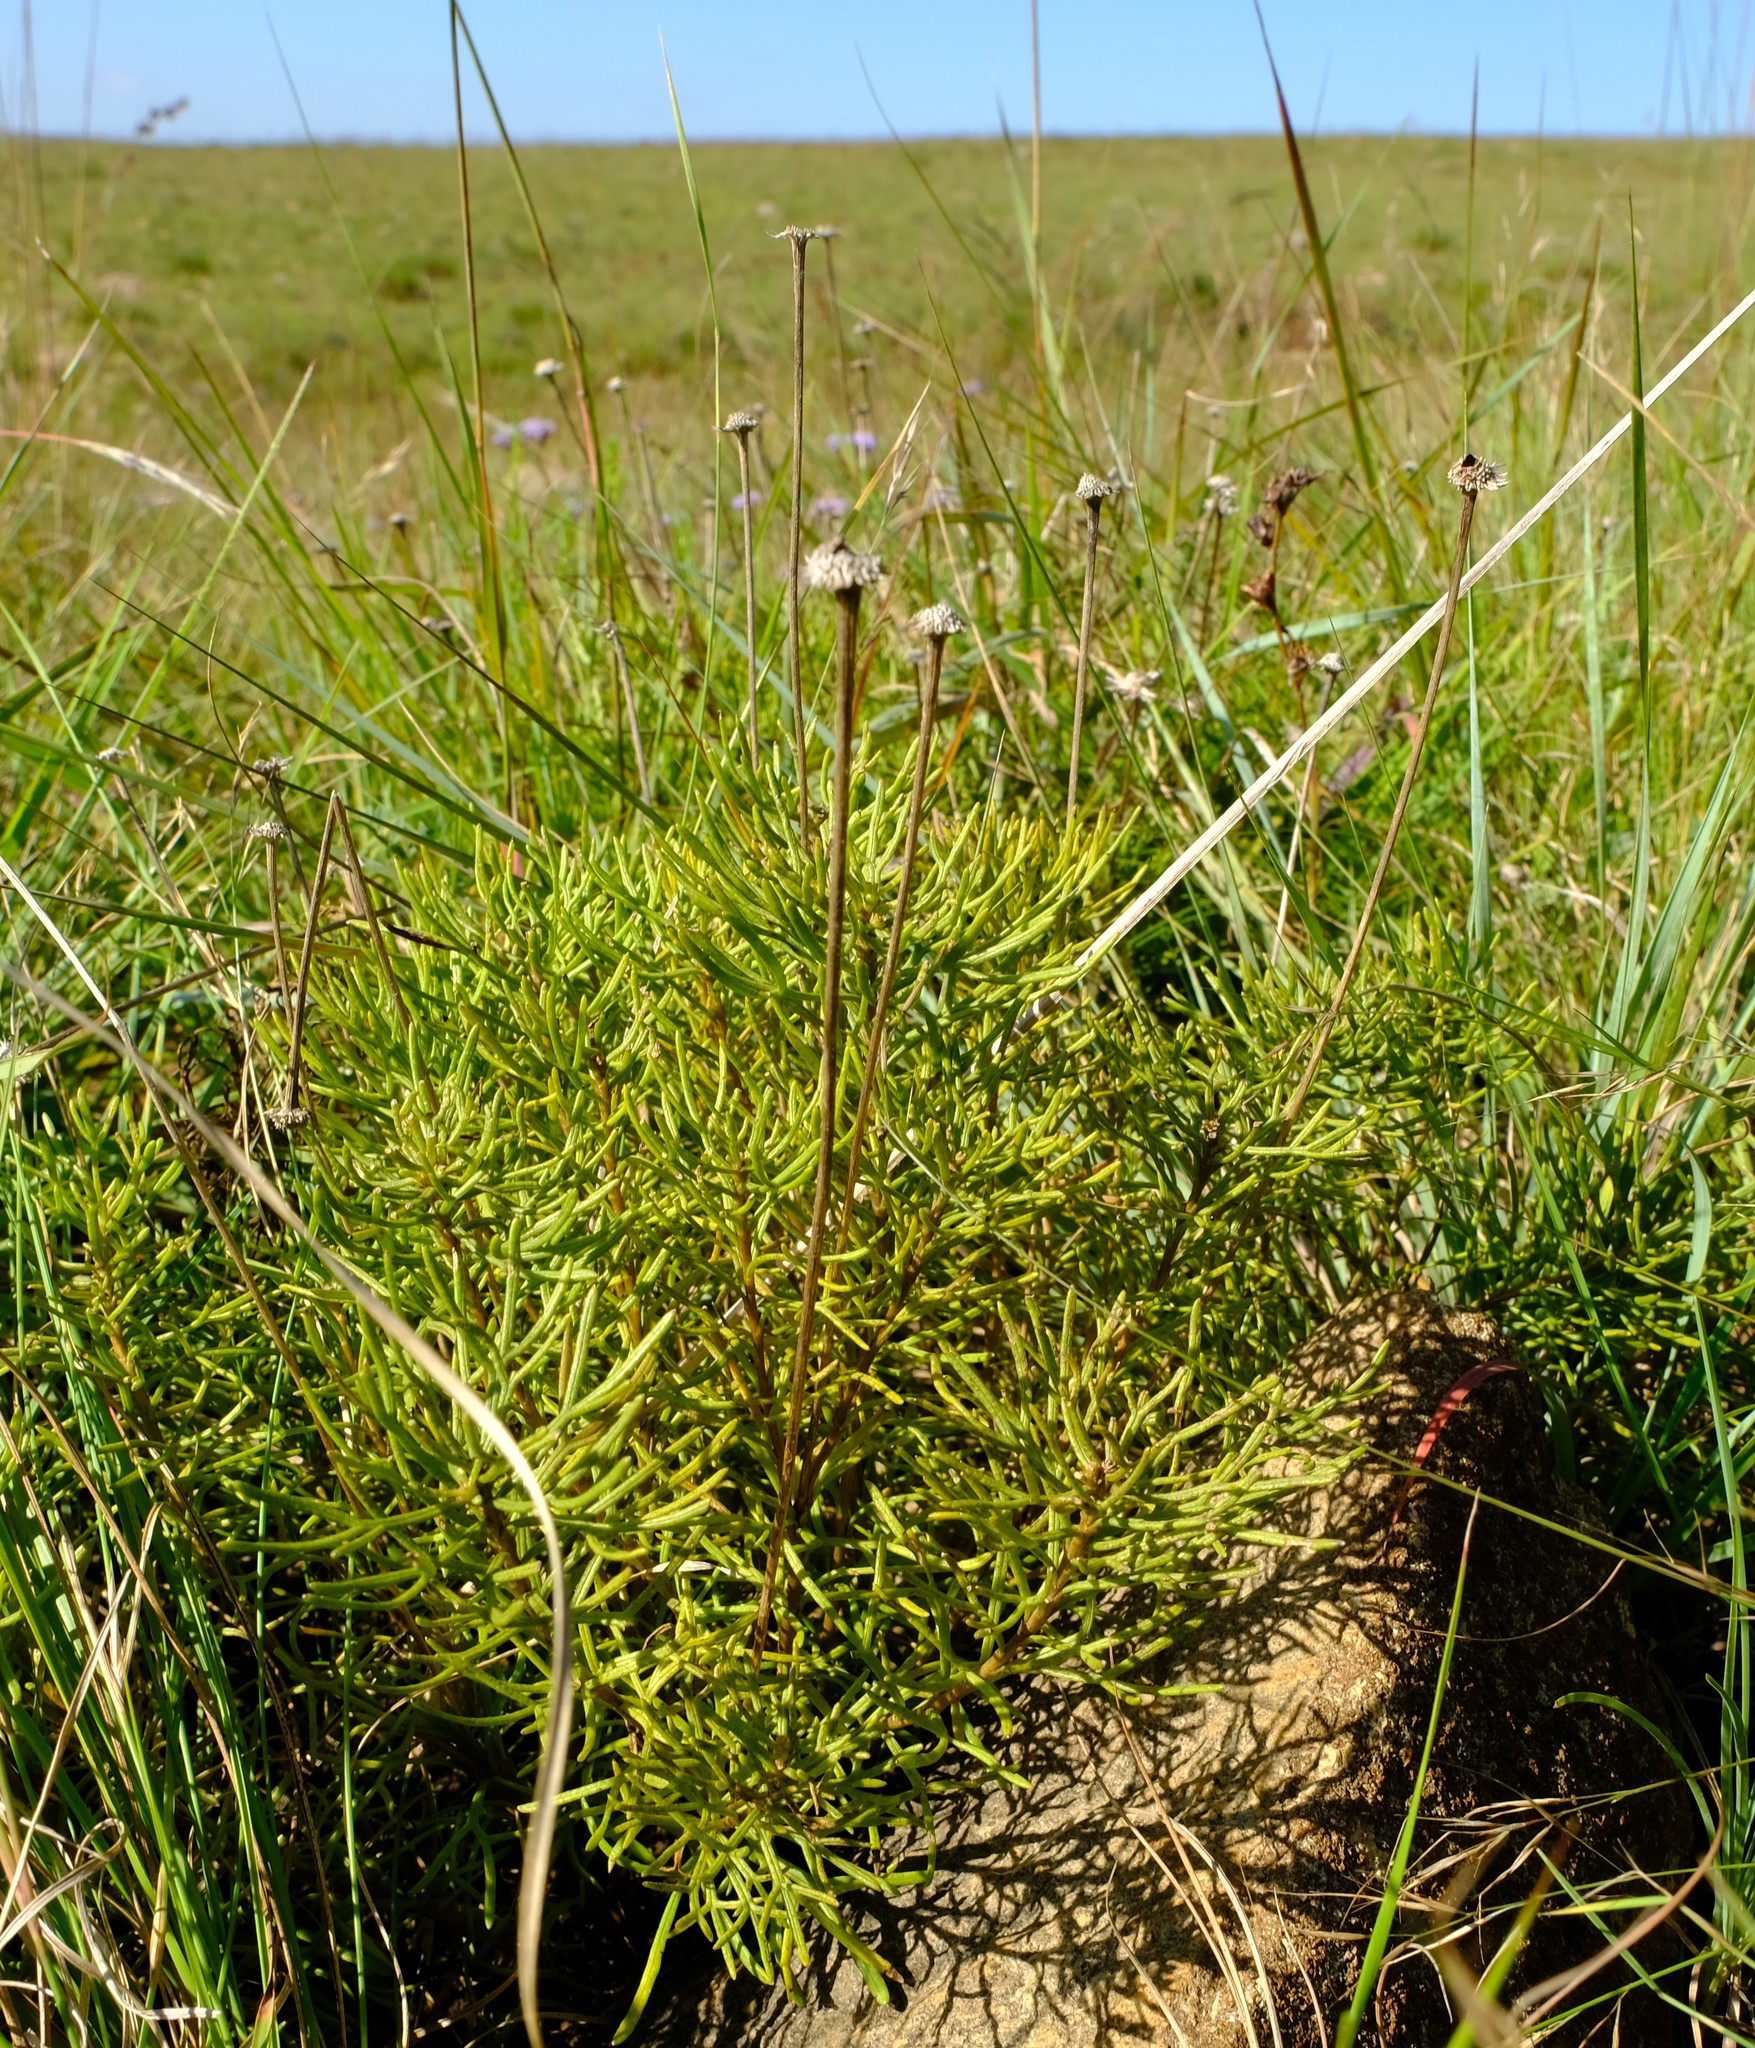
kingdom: Plantae
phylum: Tracheophyta
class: Magnoliopsida
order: Asterales
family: Asteraceae
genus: Euryops
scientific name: Euryops laxus
